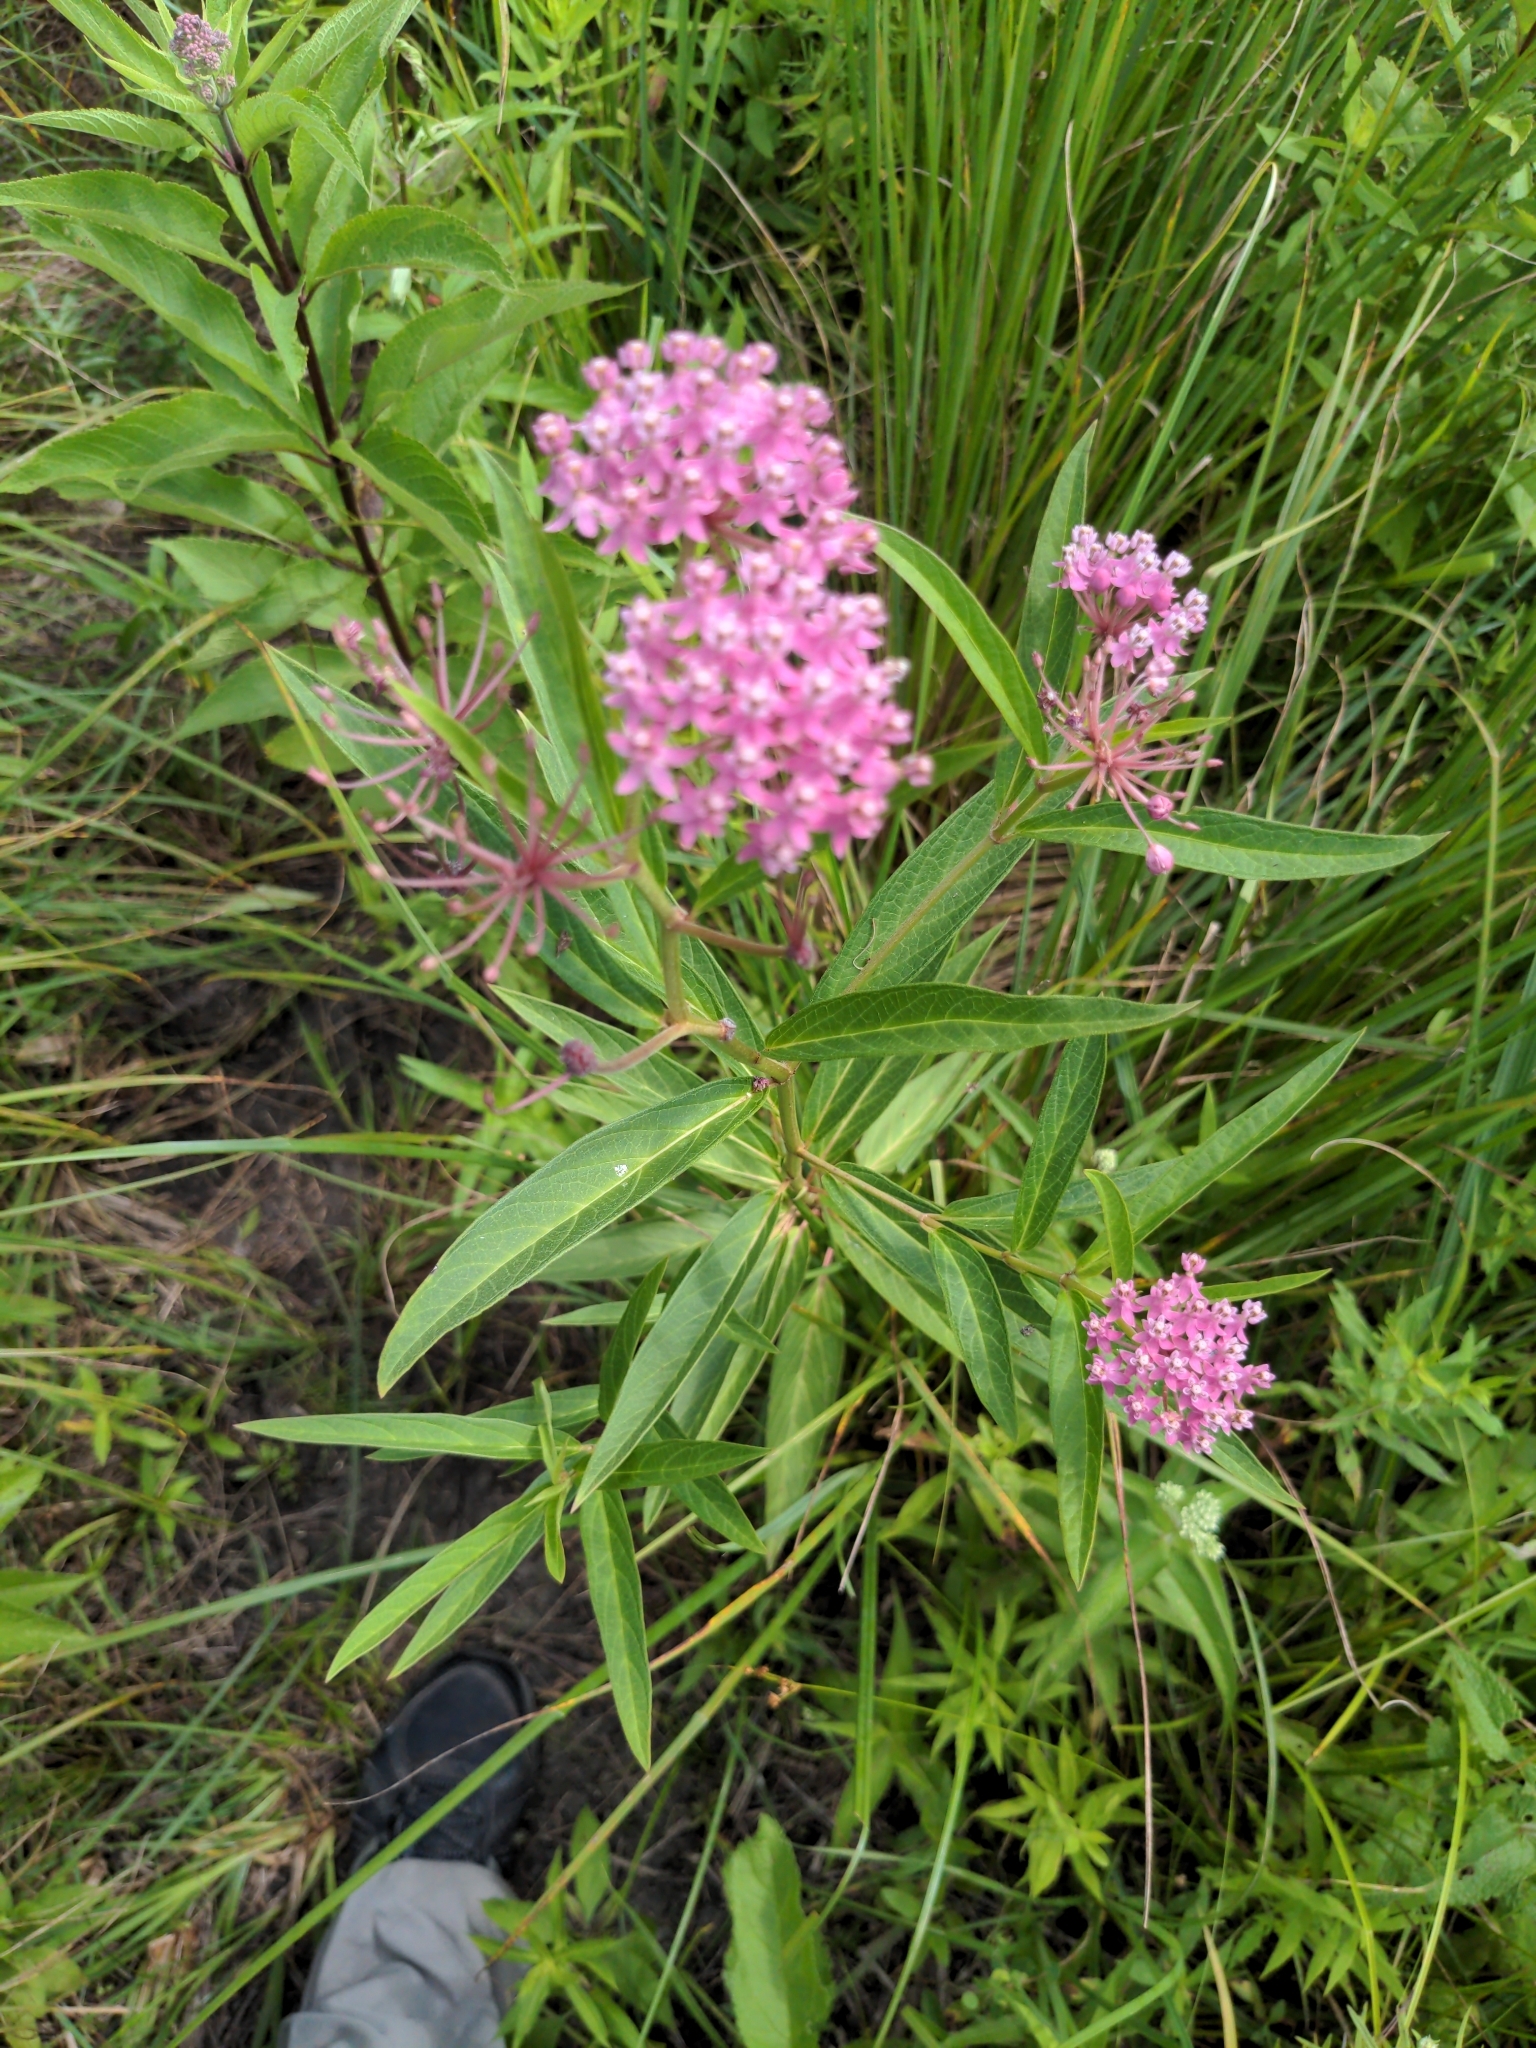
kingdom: Plantae
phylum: Tracheophyta
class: Magnoliopsida
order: Gentianales
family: Apocynaceae
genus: Asclepias
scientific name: Asclepias incarnata
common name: Swamp milkweed
